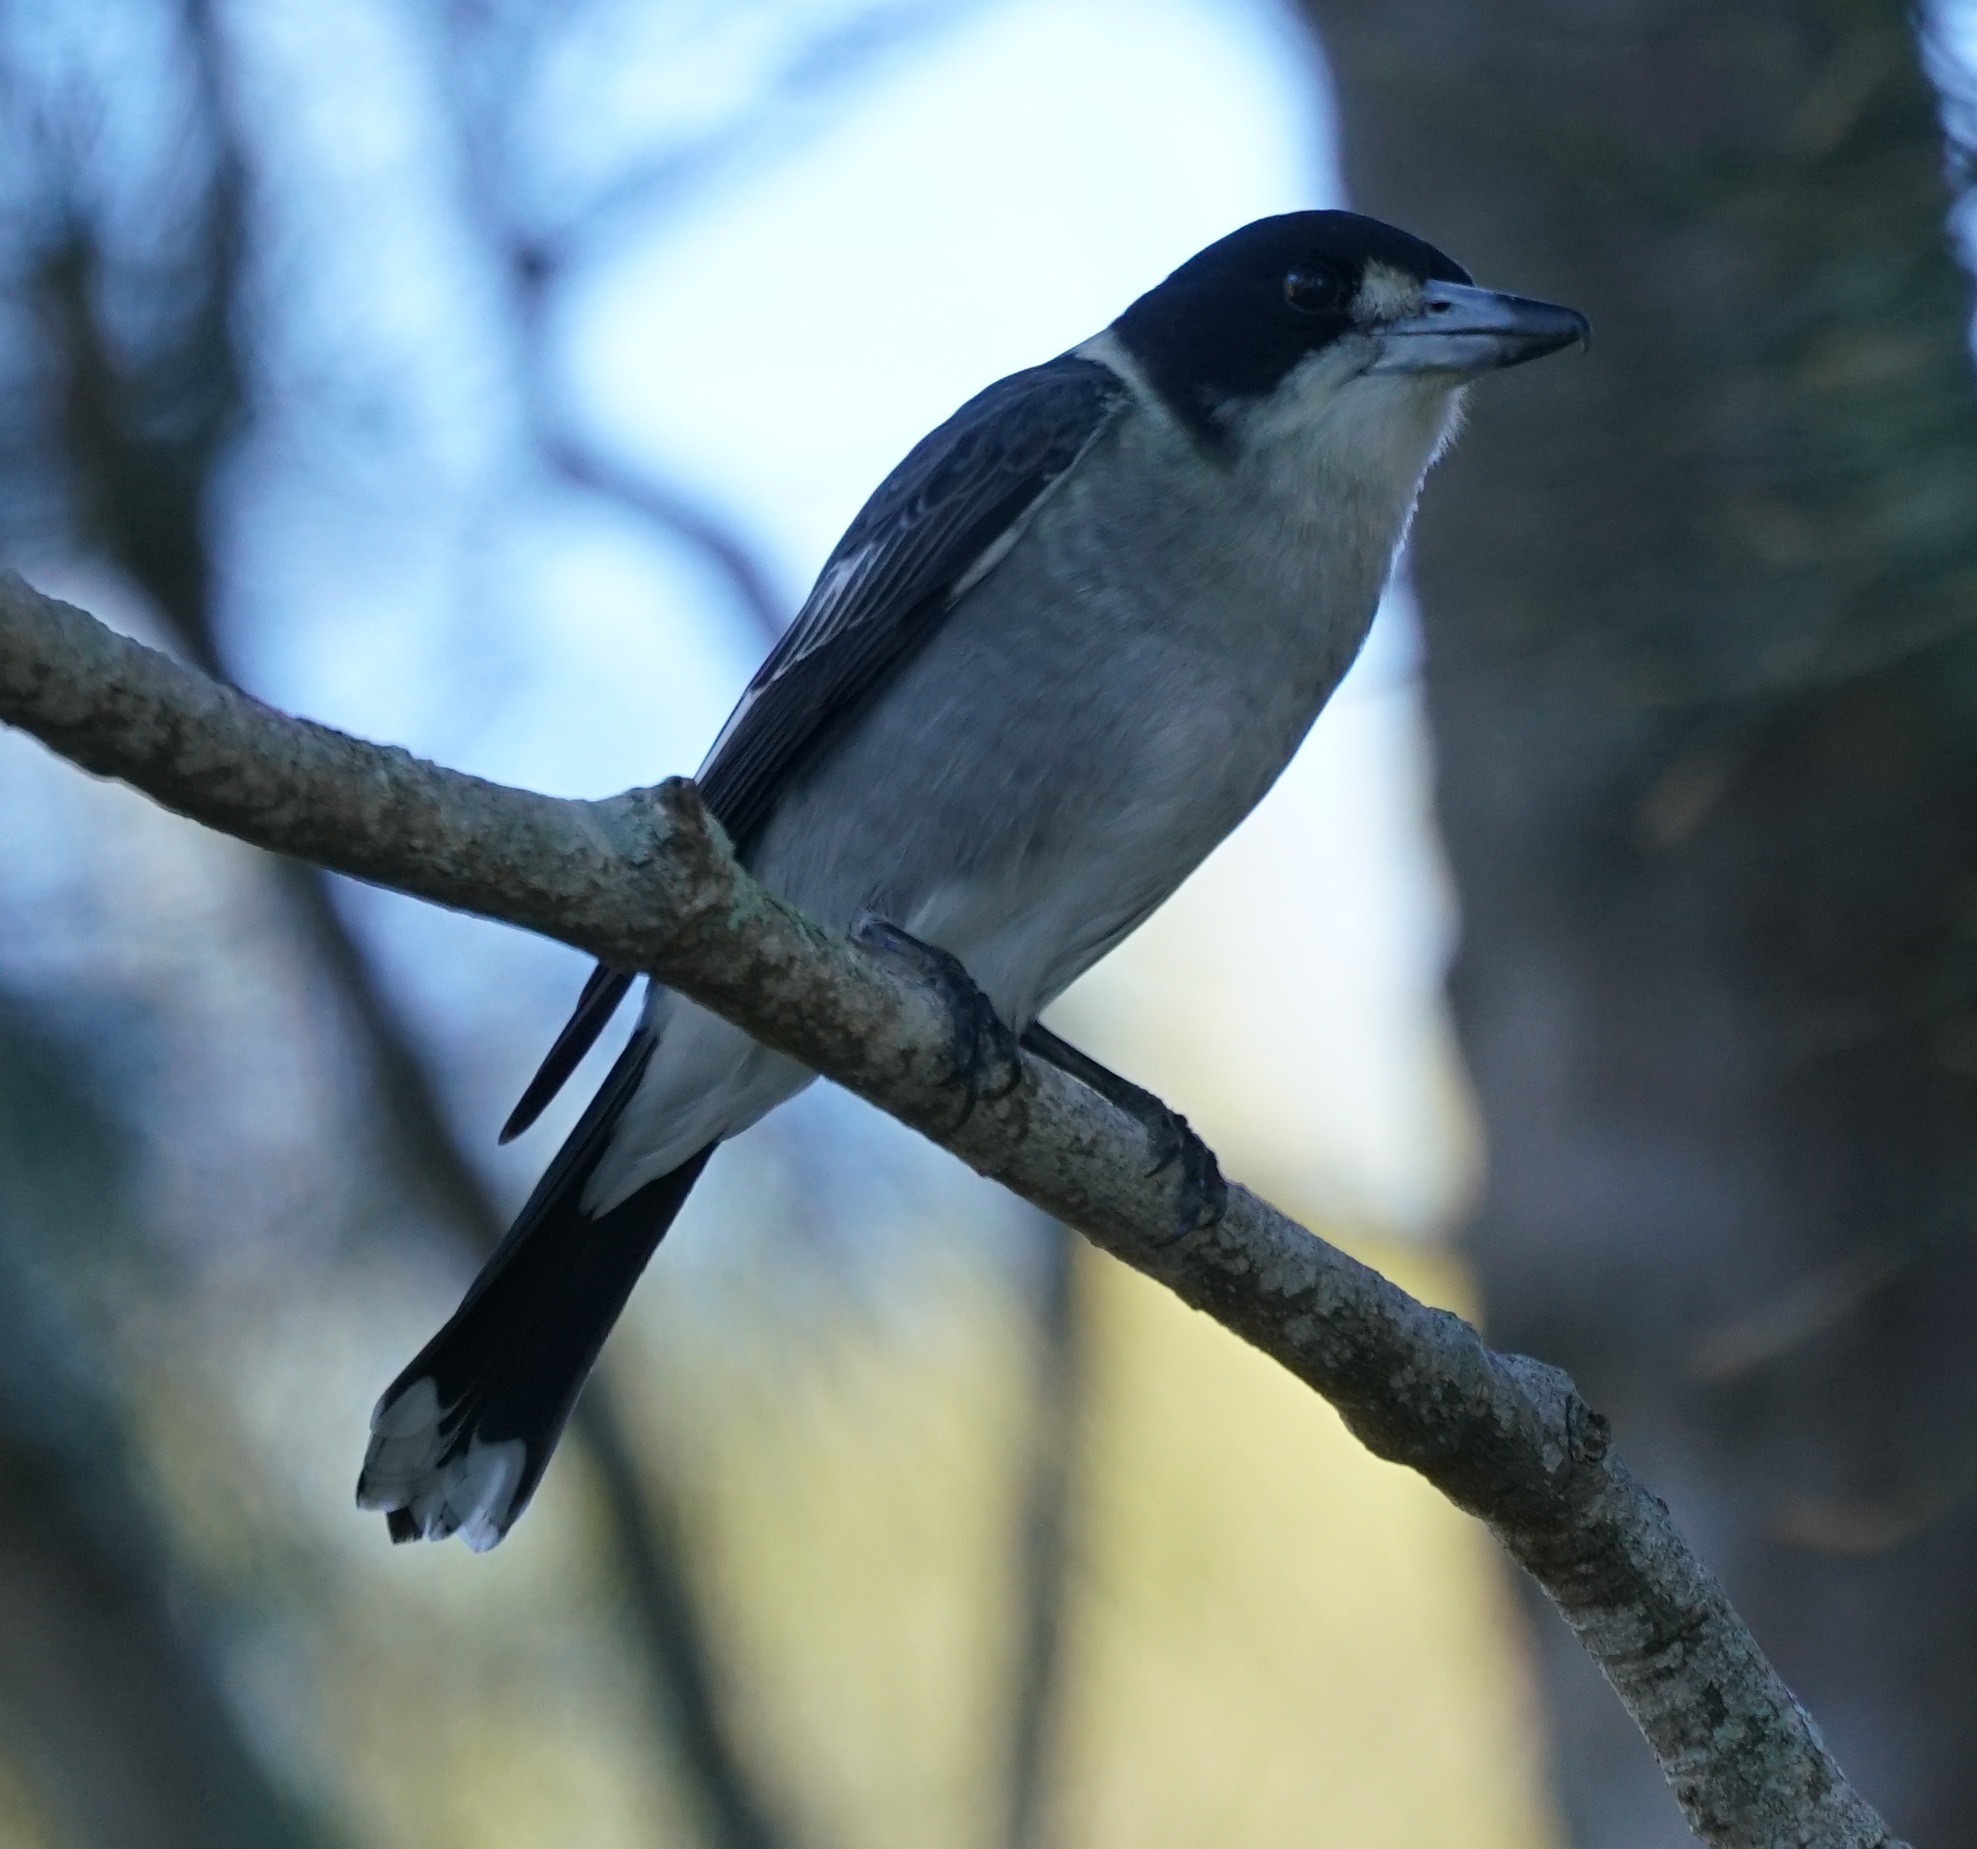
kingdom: Animalia
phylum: Chordata
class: Aves
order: Passeriformes
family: Cracticidae
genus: Cracticus
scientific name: Cracticus torquatus
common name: Grey butcherbird
